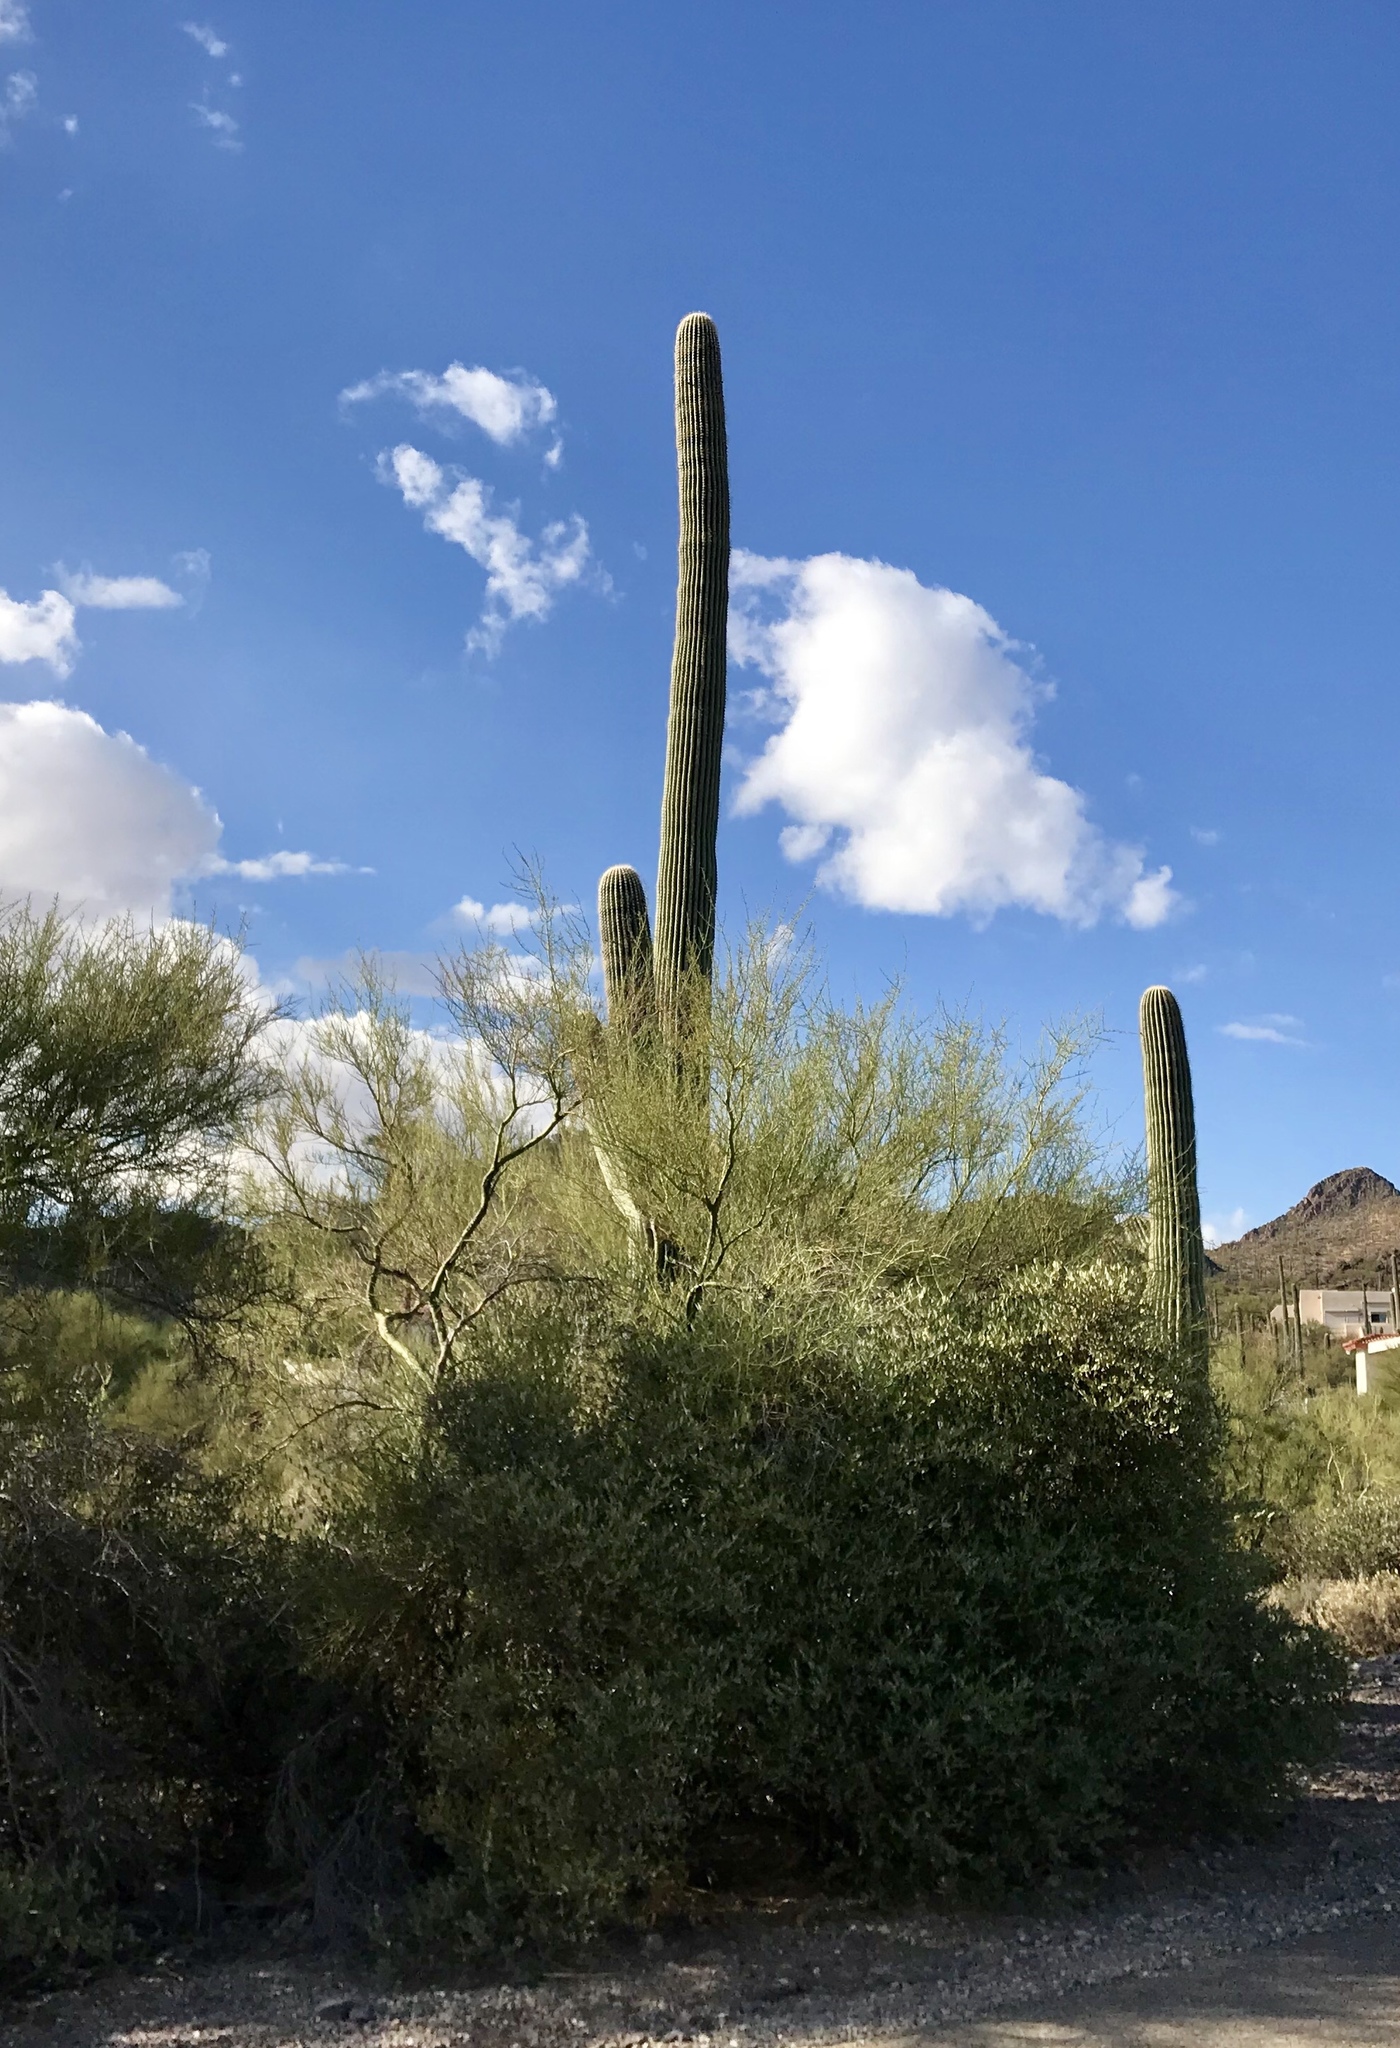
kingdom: Plantae
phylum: Tracheophyta
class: Magnoliopsida
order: Caryophyllales
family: Cactaceae
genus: Carnegiea
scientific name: Carnegiea gigantea
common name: Saguaro
